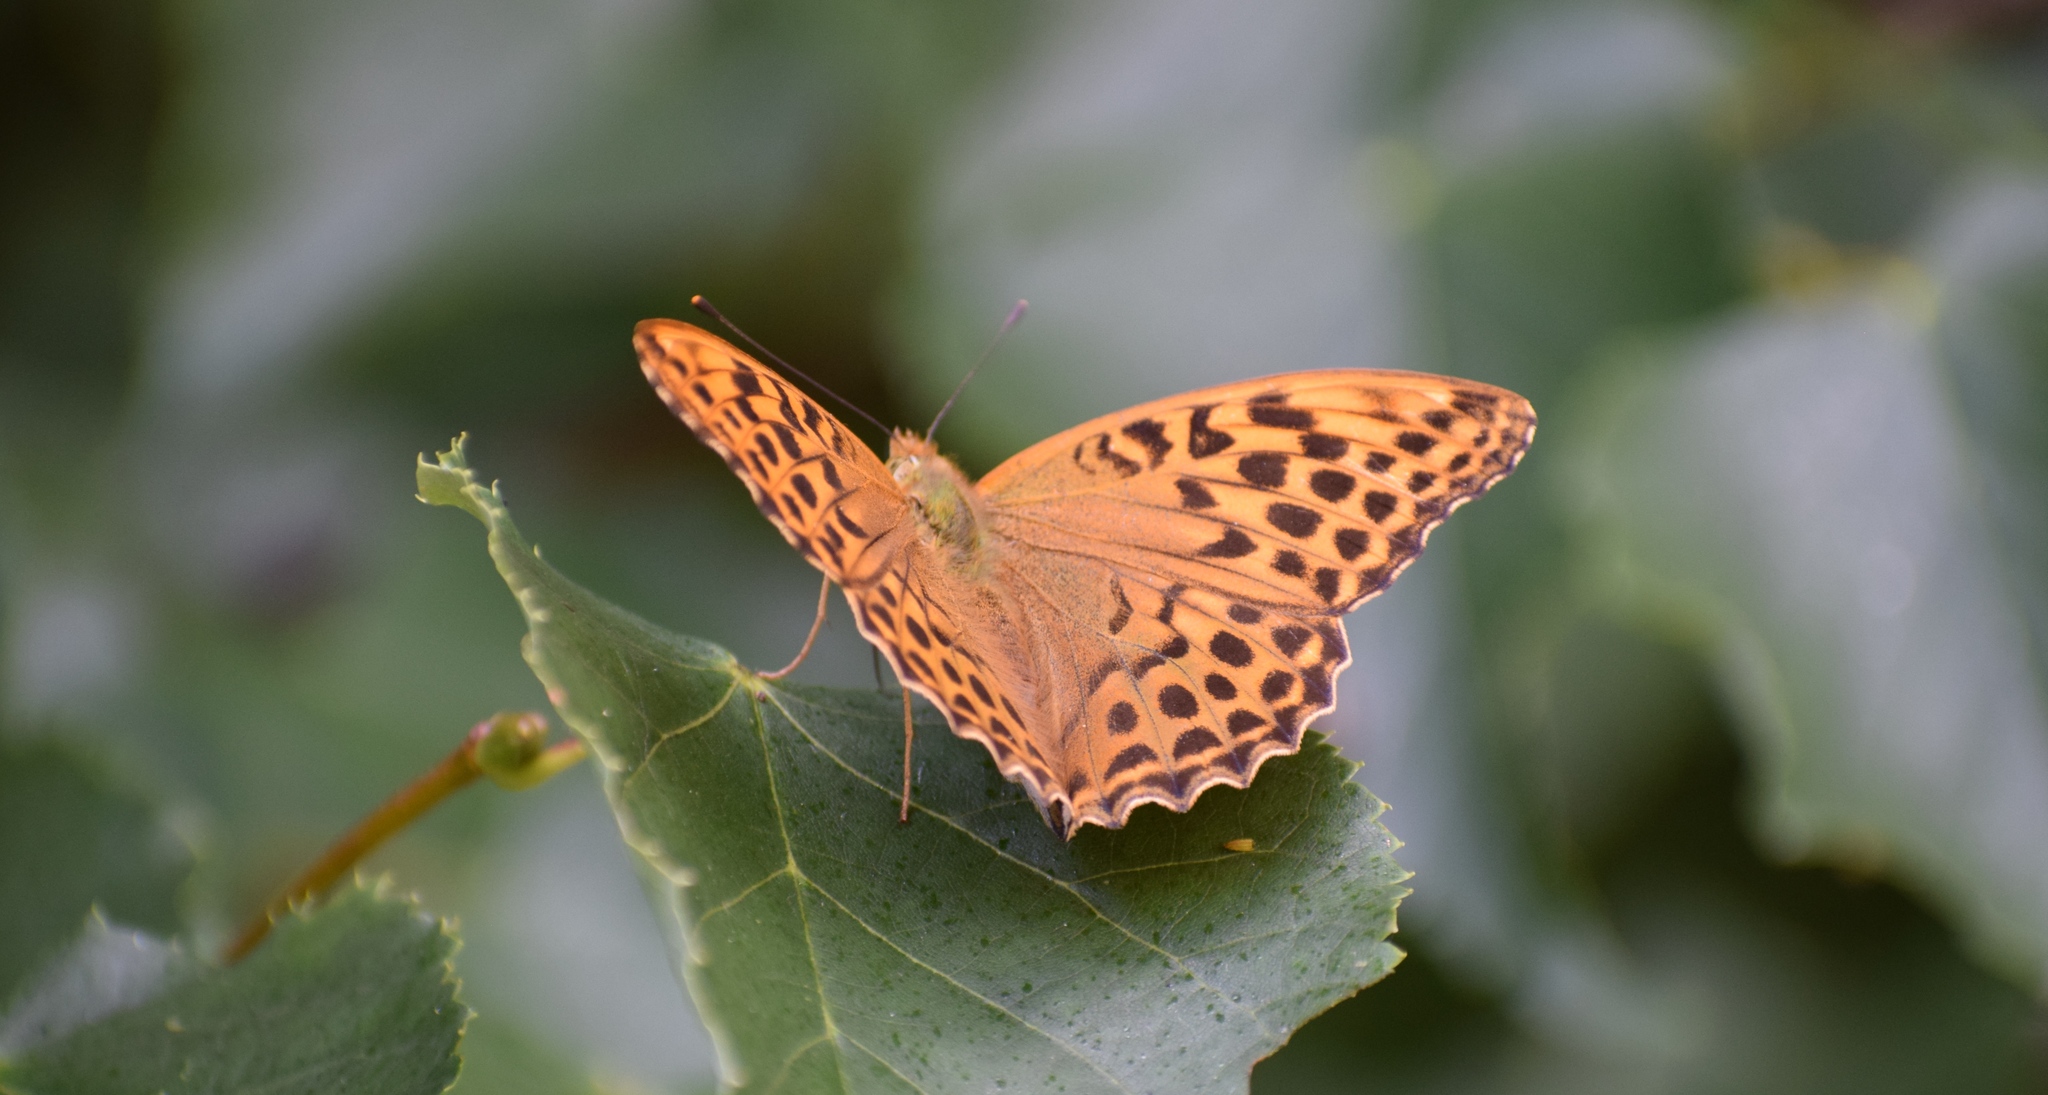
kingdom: Animalia
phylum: Arthropoda
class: Insecta
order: Lepidoptera
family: Nymphalidae
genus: Argynnis
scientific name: Argynnis paphia
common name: Silver-washed fritillary
